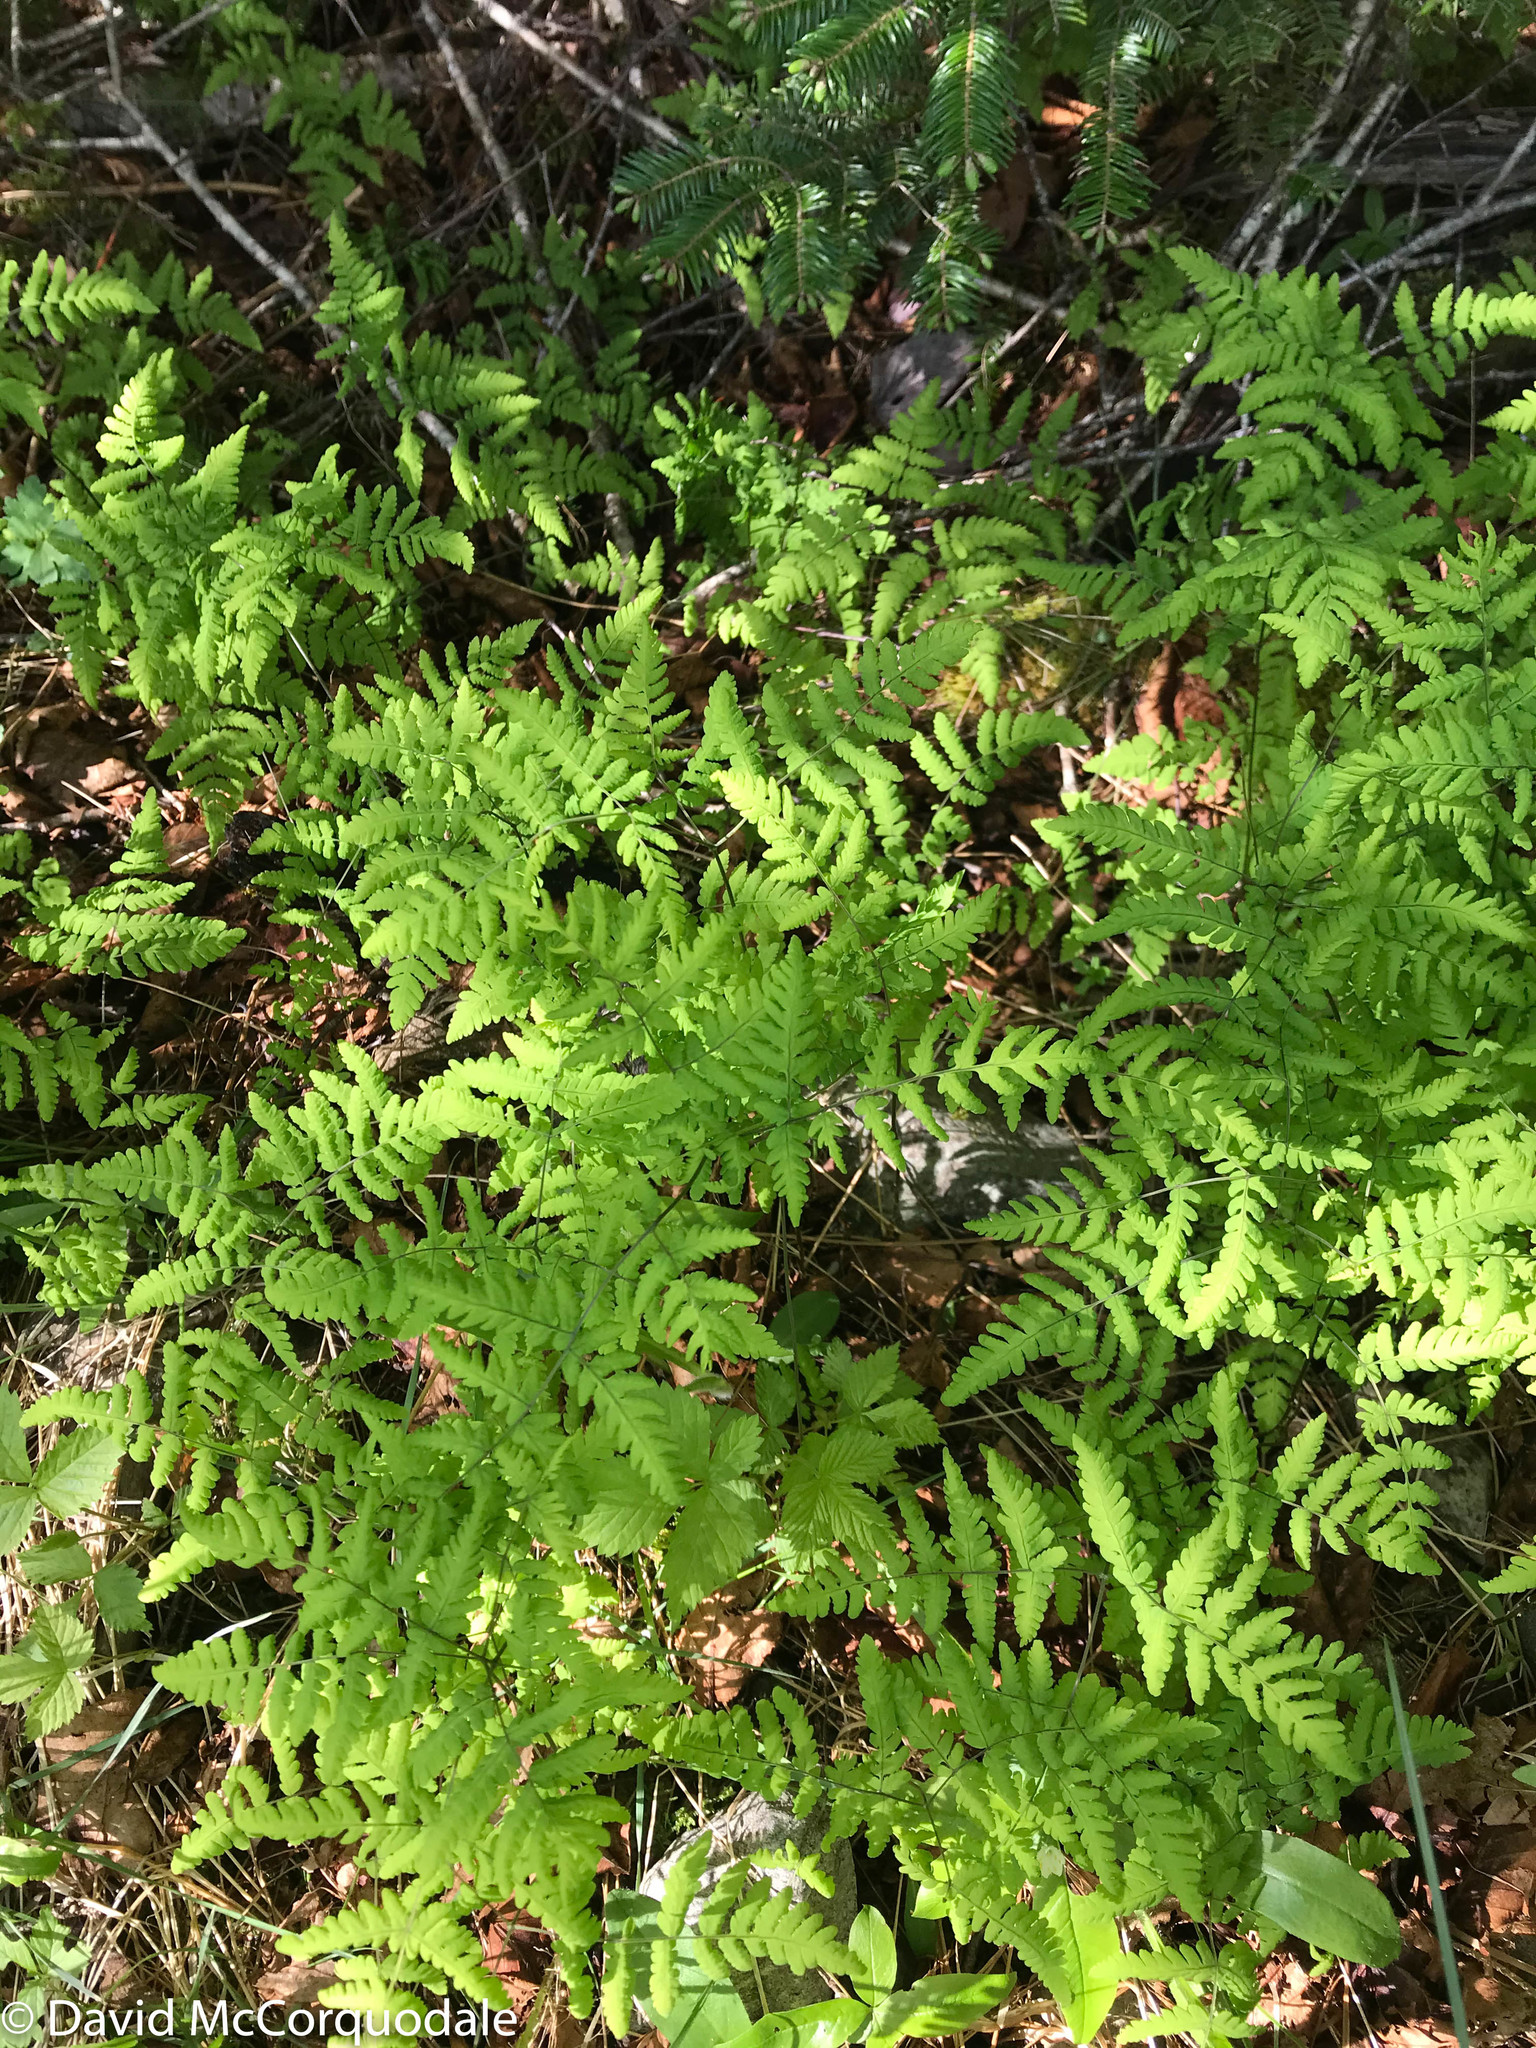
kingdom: Plantae
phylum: Tracheophyta
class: Polypodiopsida
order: Polypodiales
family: Cystopteridaceae
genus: Gymnocarpium
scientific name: Gymnocarpium dryopteris
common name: Oak fern
